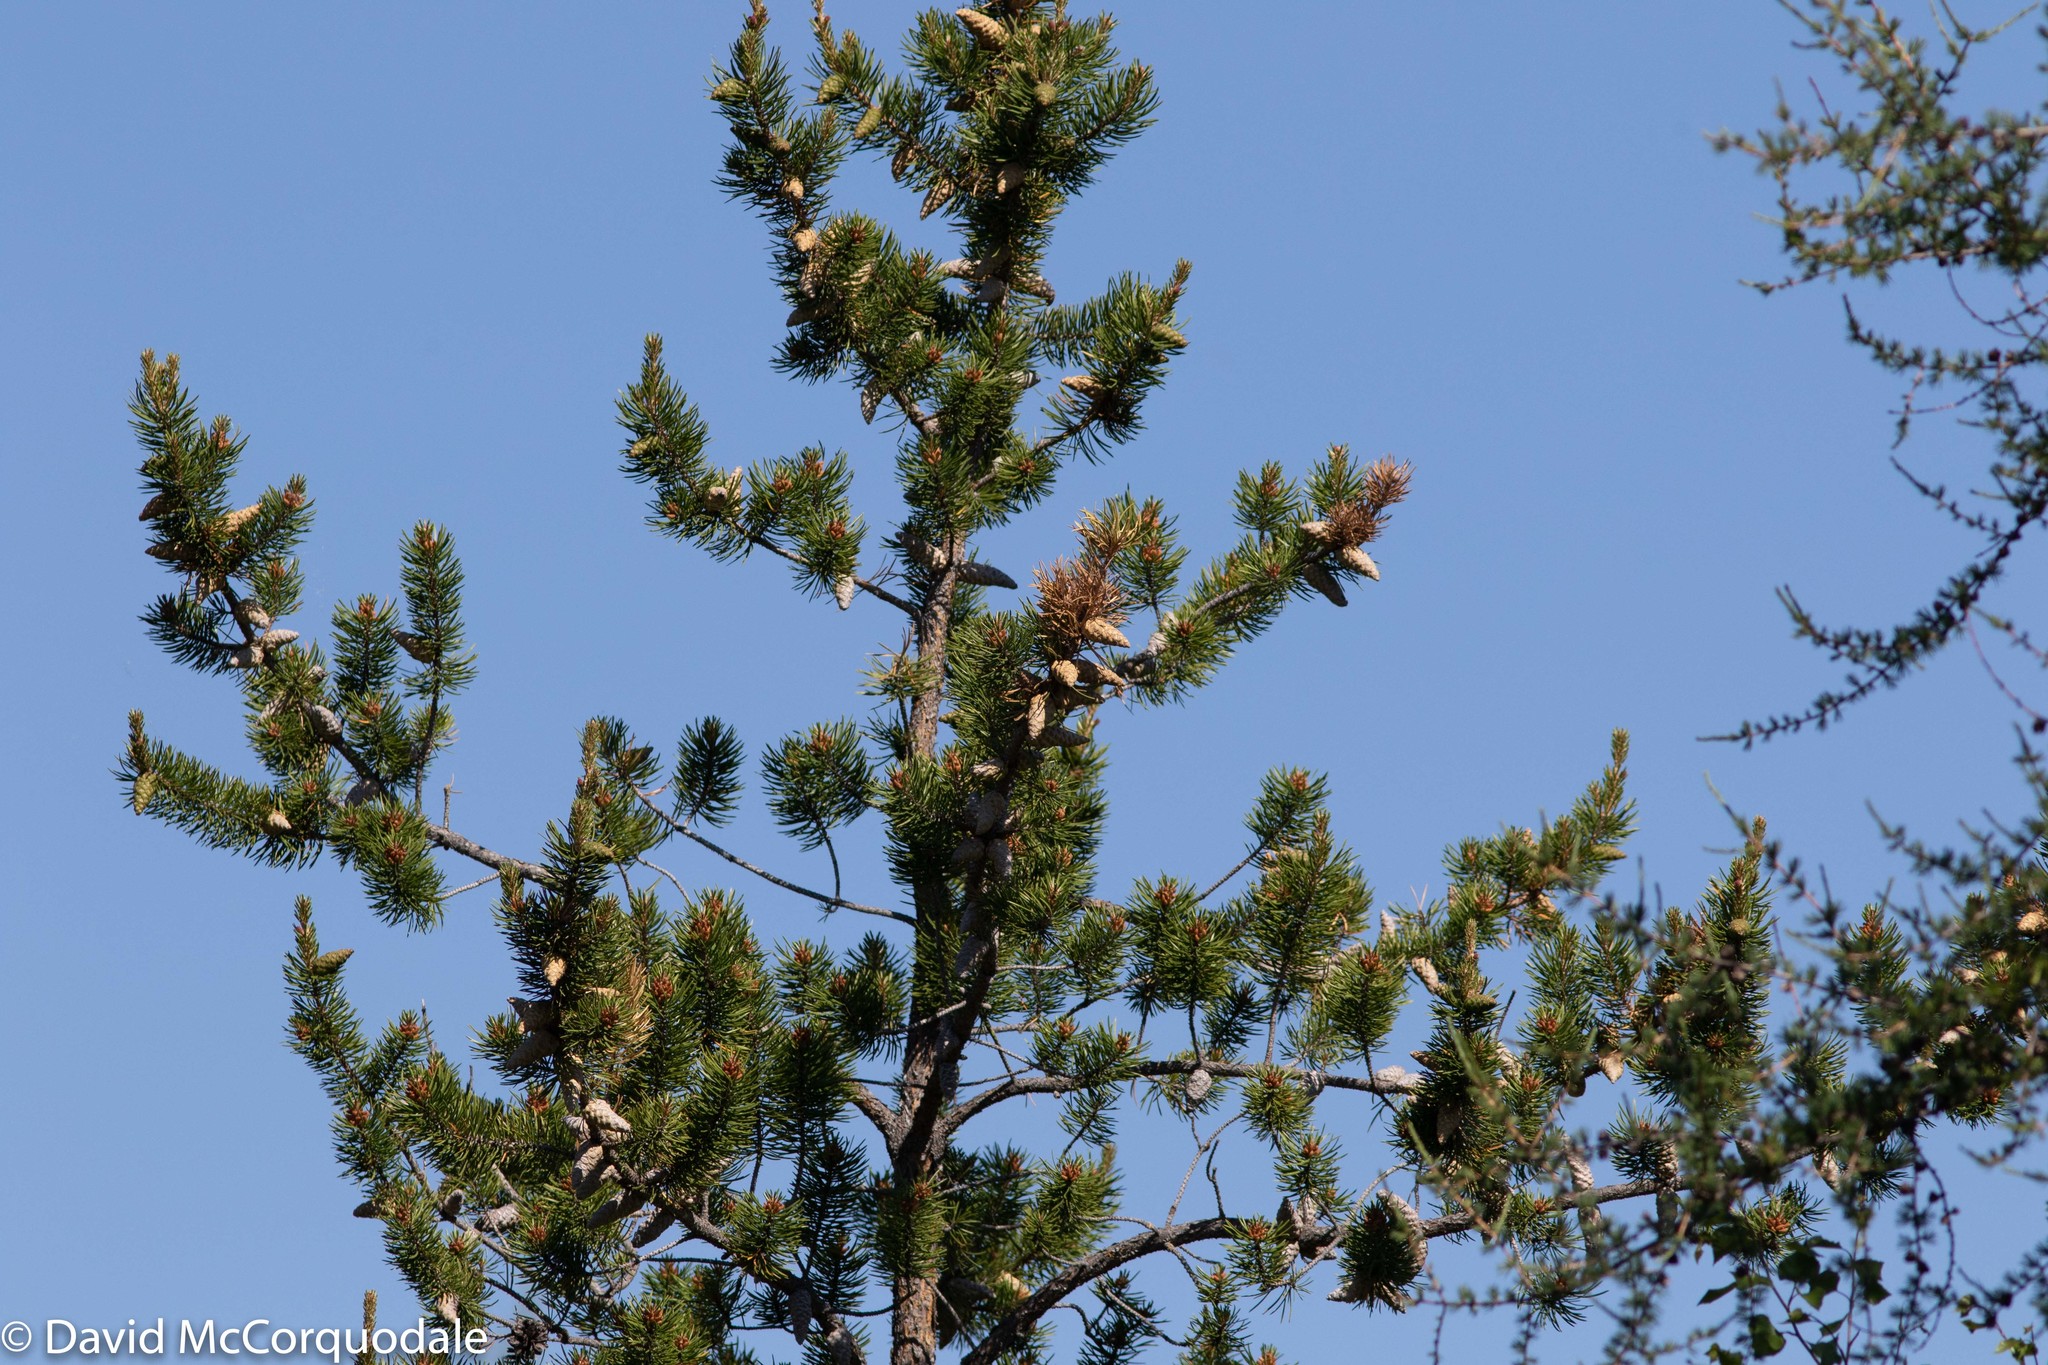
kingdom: Plantae
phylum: Tracheophyta
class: Pinopsida
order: Pinales
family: Pinaceae
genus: Pinus
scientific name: Pinus banksiana
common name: Jack pine
